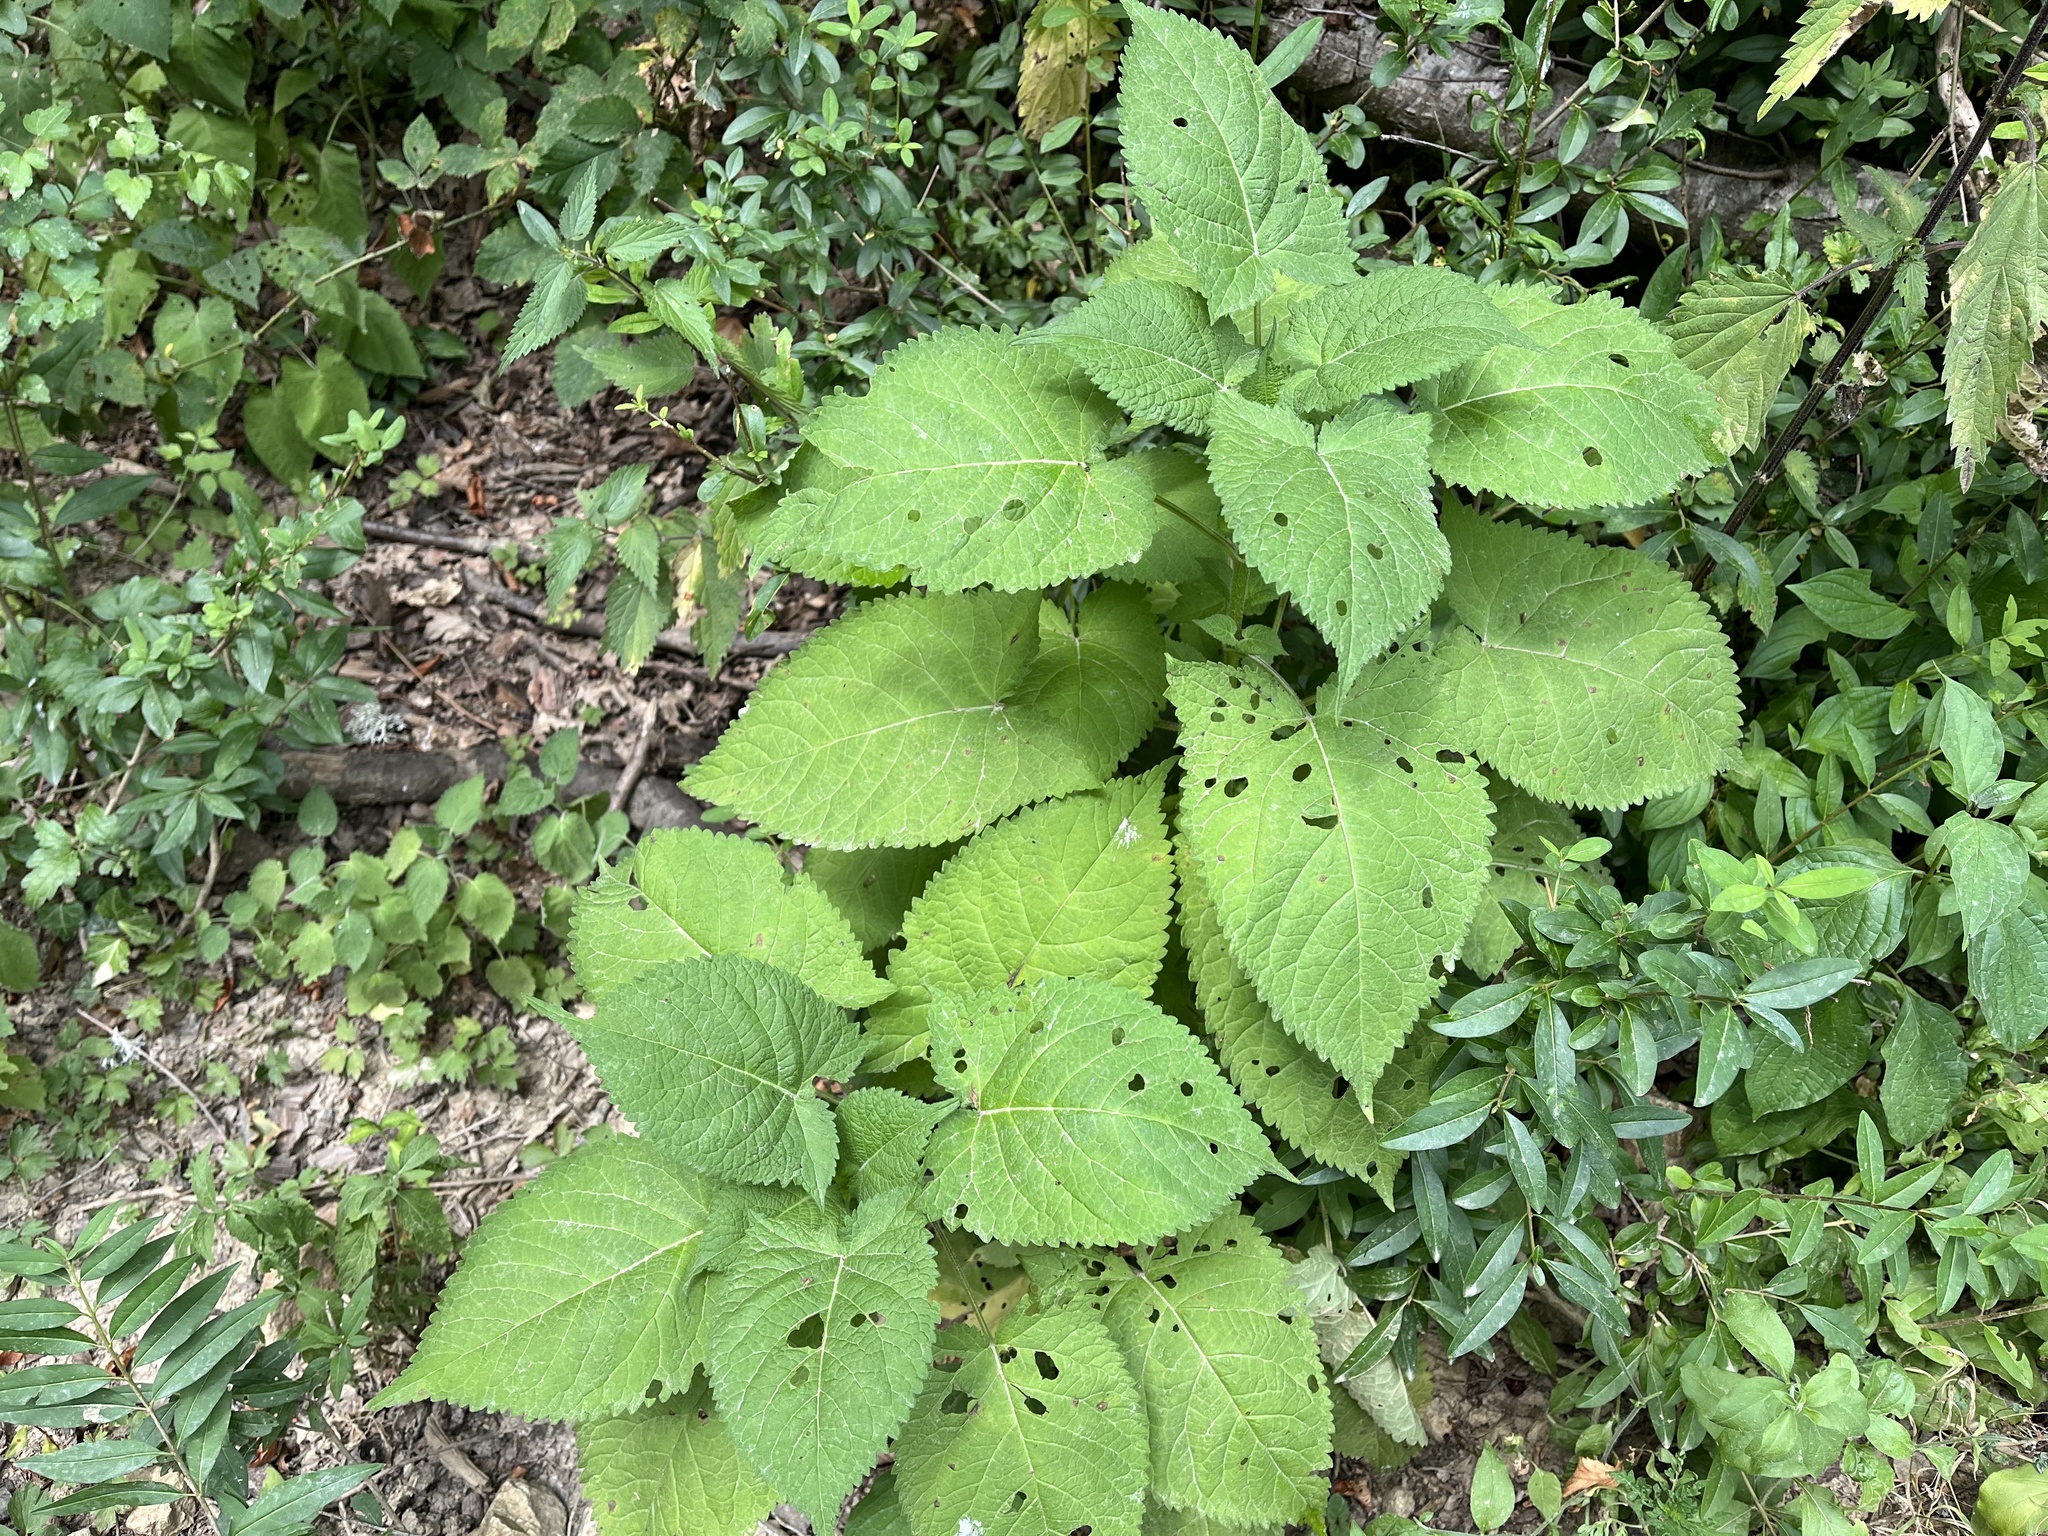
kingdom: Plantae
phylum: Tracheophyta
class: Magnoliopsida
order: Lamiales
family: Lamiaceae
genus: Salvia
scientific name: Salvia glutinosa
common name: Sticky clary
